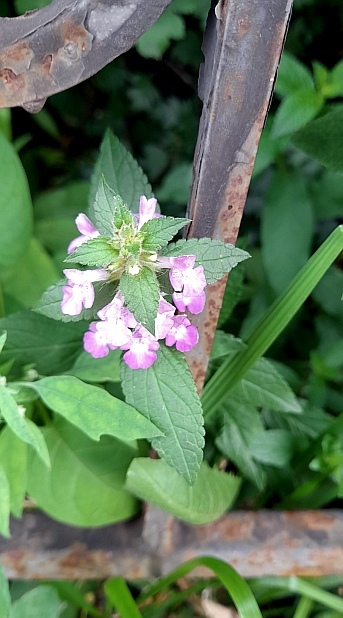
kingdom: Plantae
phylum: Tracheophyta
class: Magnoliopsida
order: Lamiales
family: Lamiaceae
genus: Stachys
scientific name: Stachys palustris
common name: Marsh woundwort
